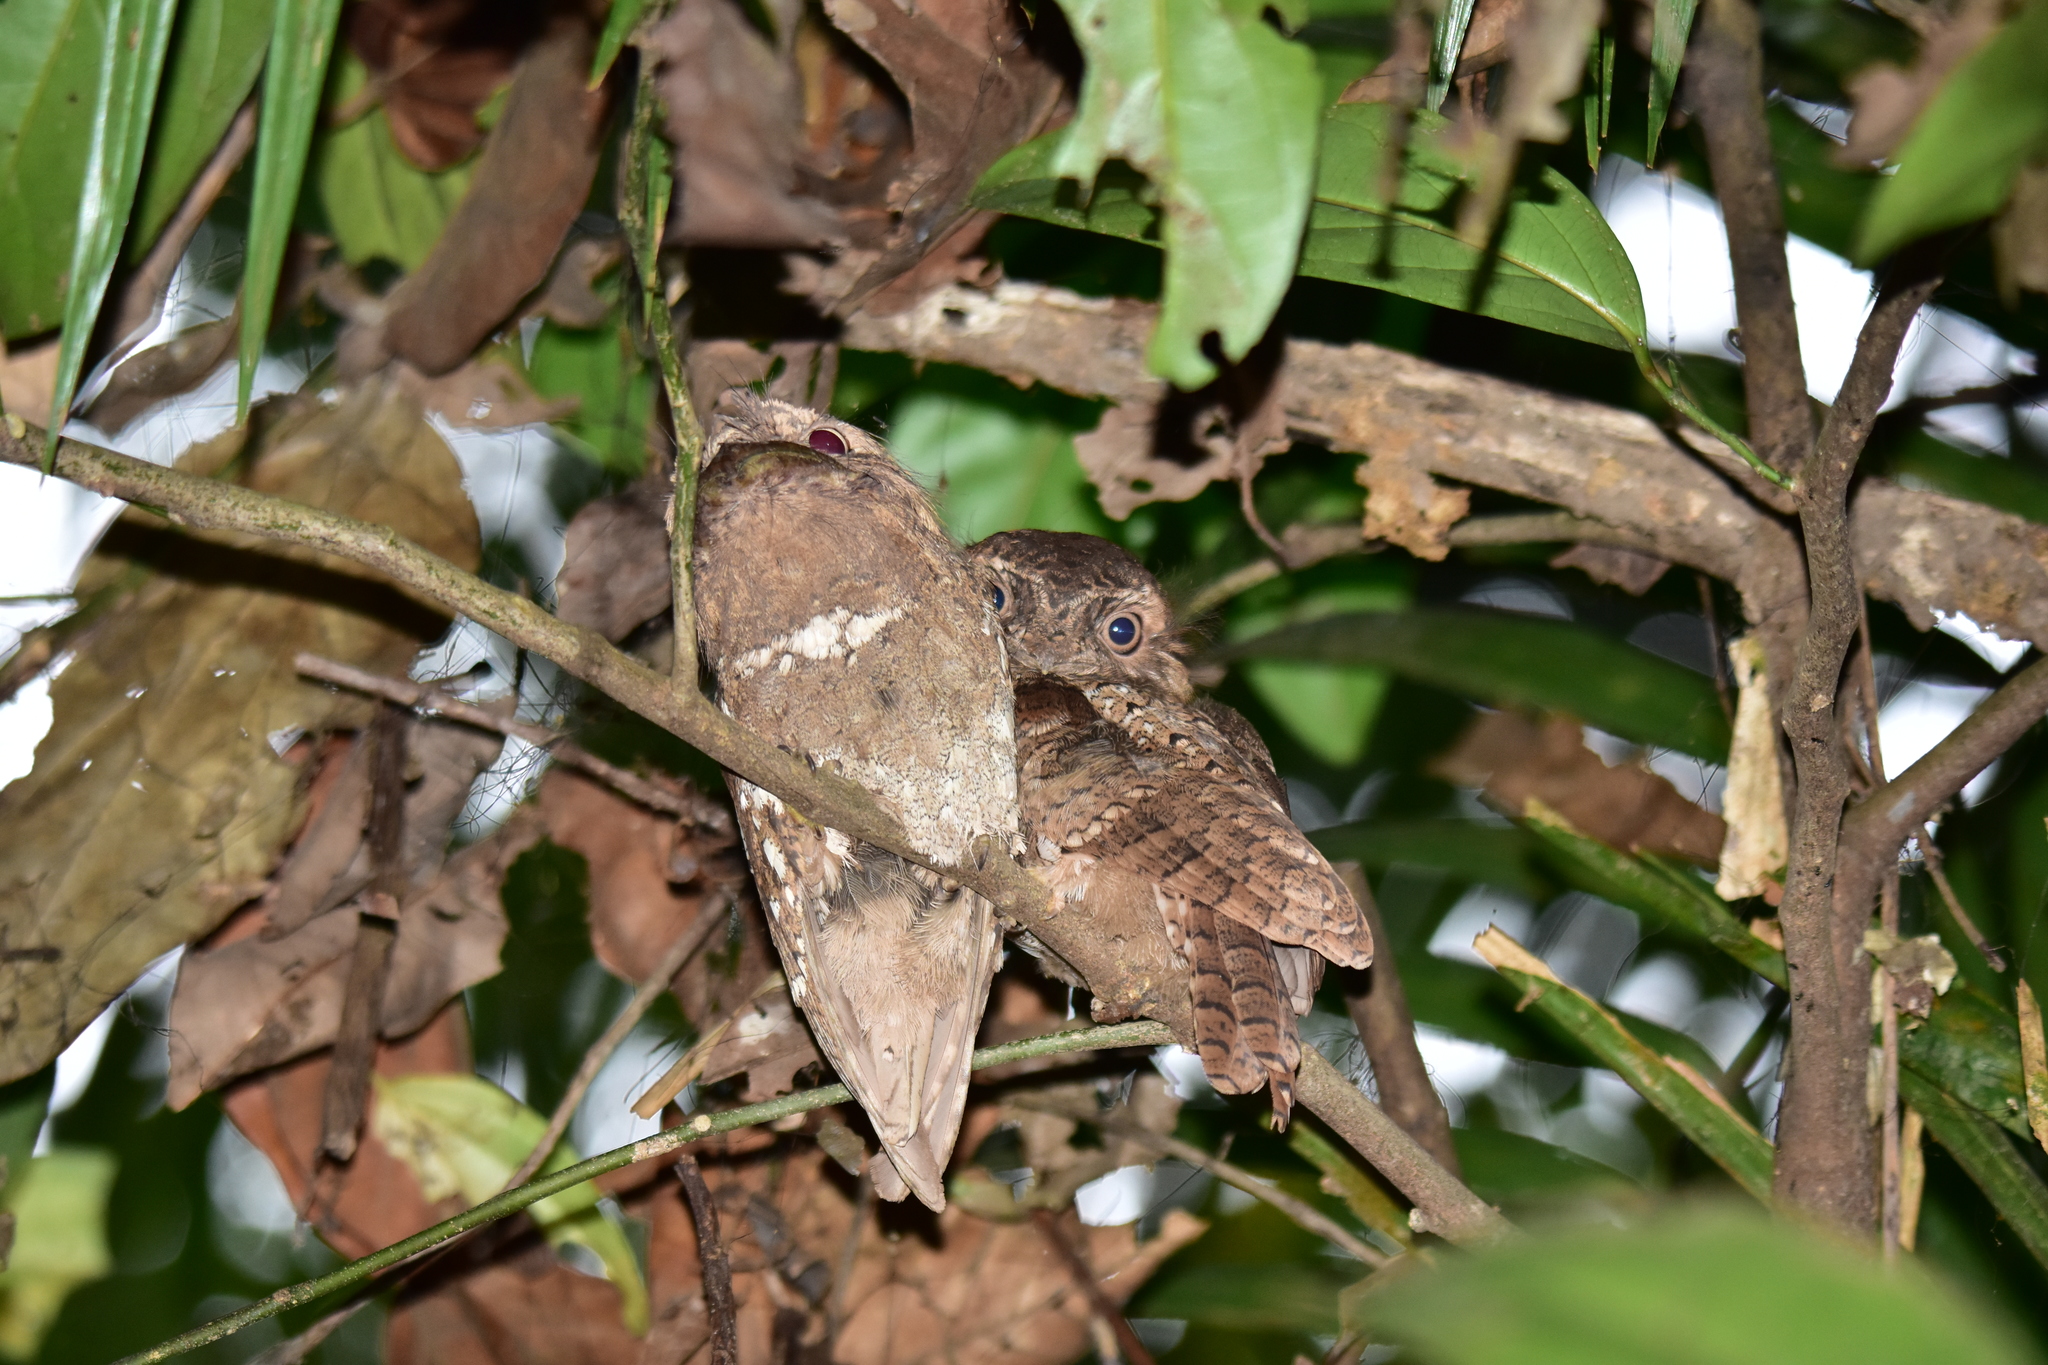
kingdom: Animalia
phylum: Chordata
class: Aves
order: Caprimulgiformes
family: Podargidae
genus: Batrachostomus
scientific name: Batrachostomus moniliger
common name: Sri lanka frogmouth
